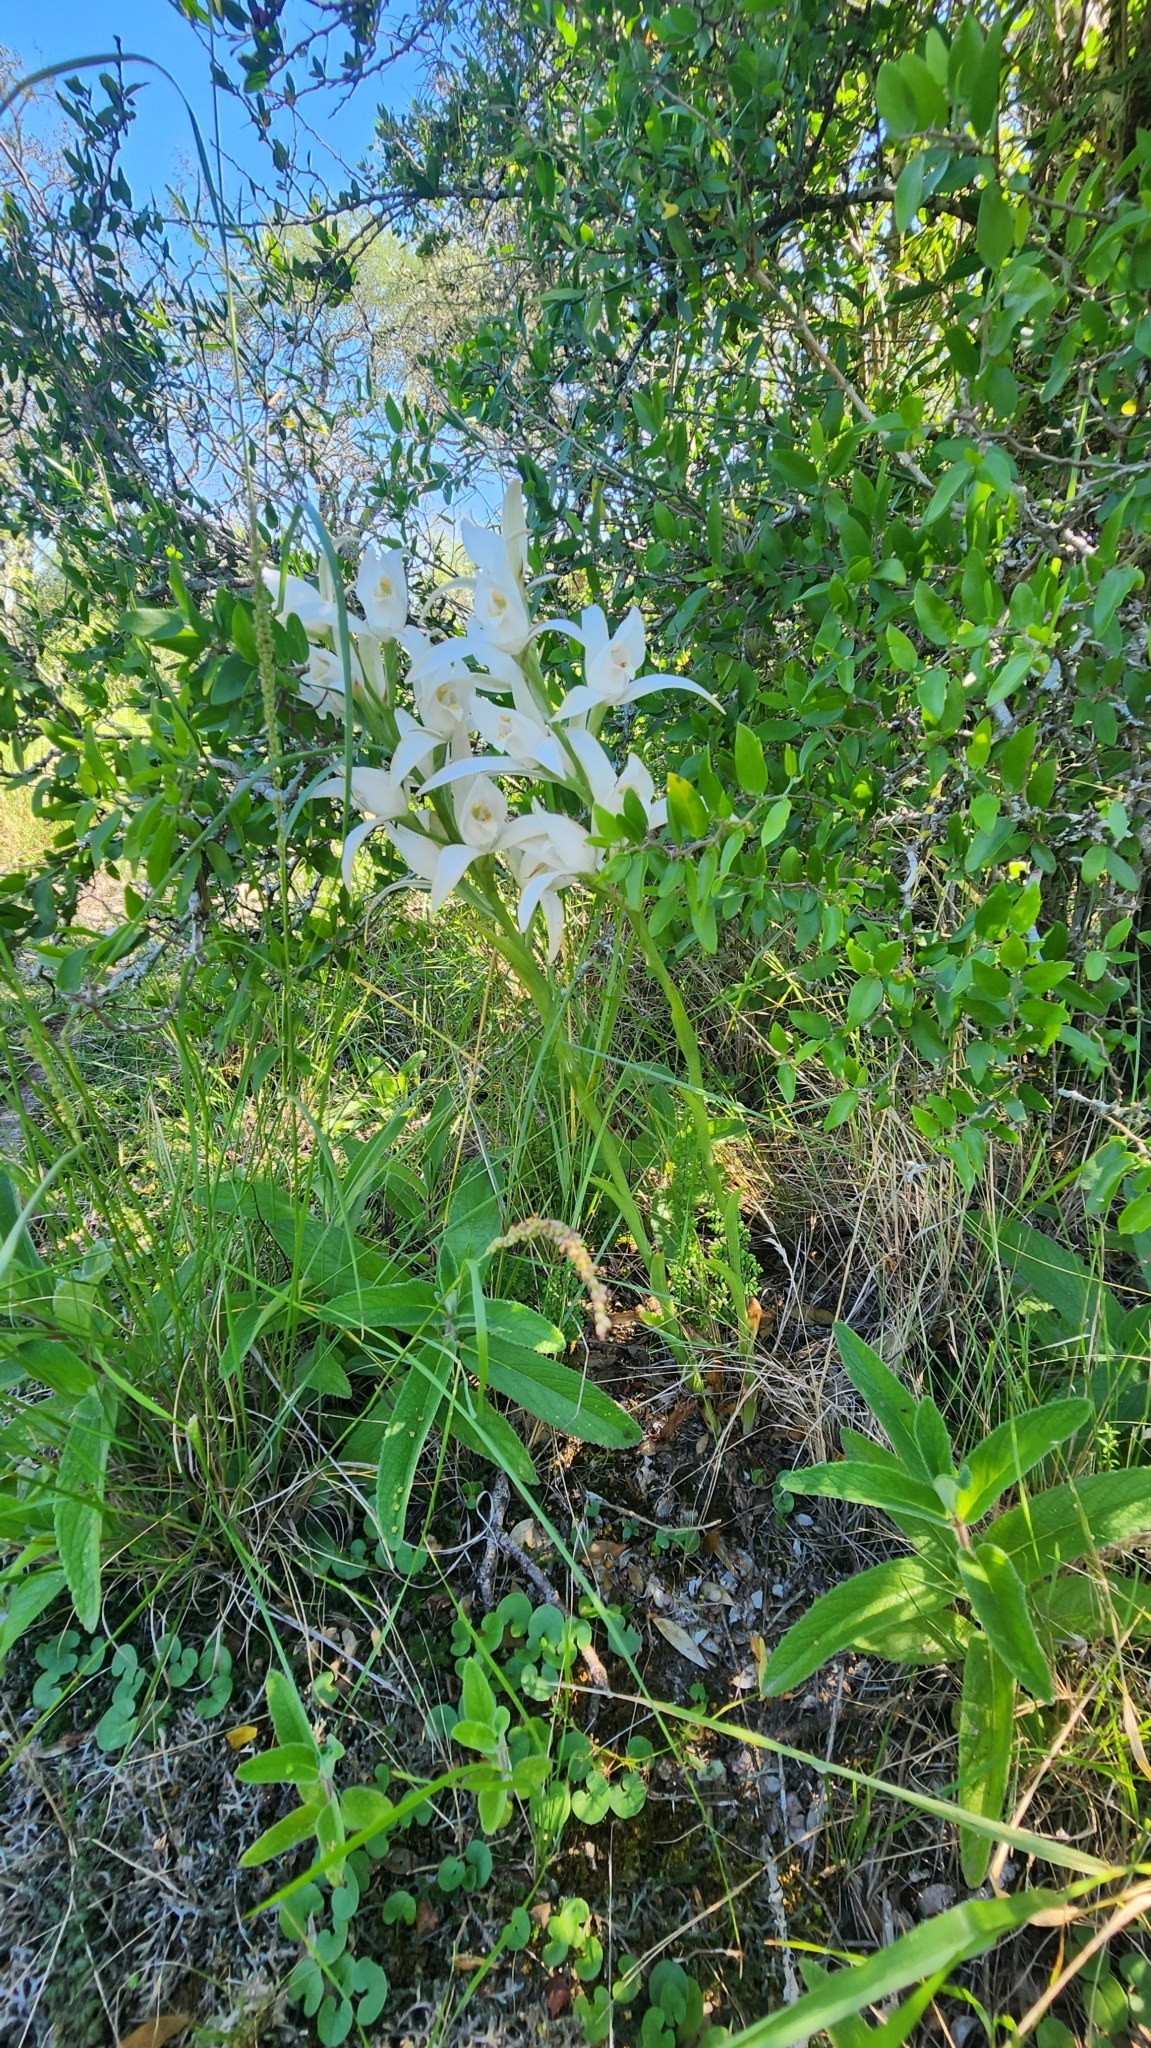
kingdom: Plantae
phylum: Tracheophyta
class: Liliopsida
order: Asparagales
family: Orchidaceae
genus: Chloraea
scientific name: Chloraea bella
